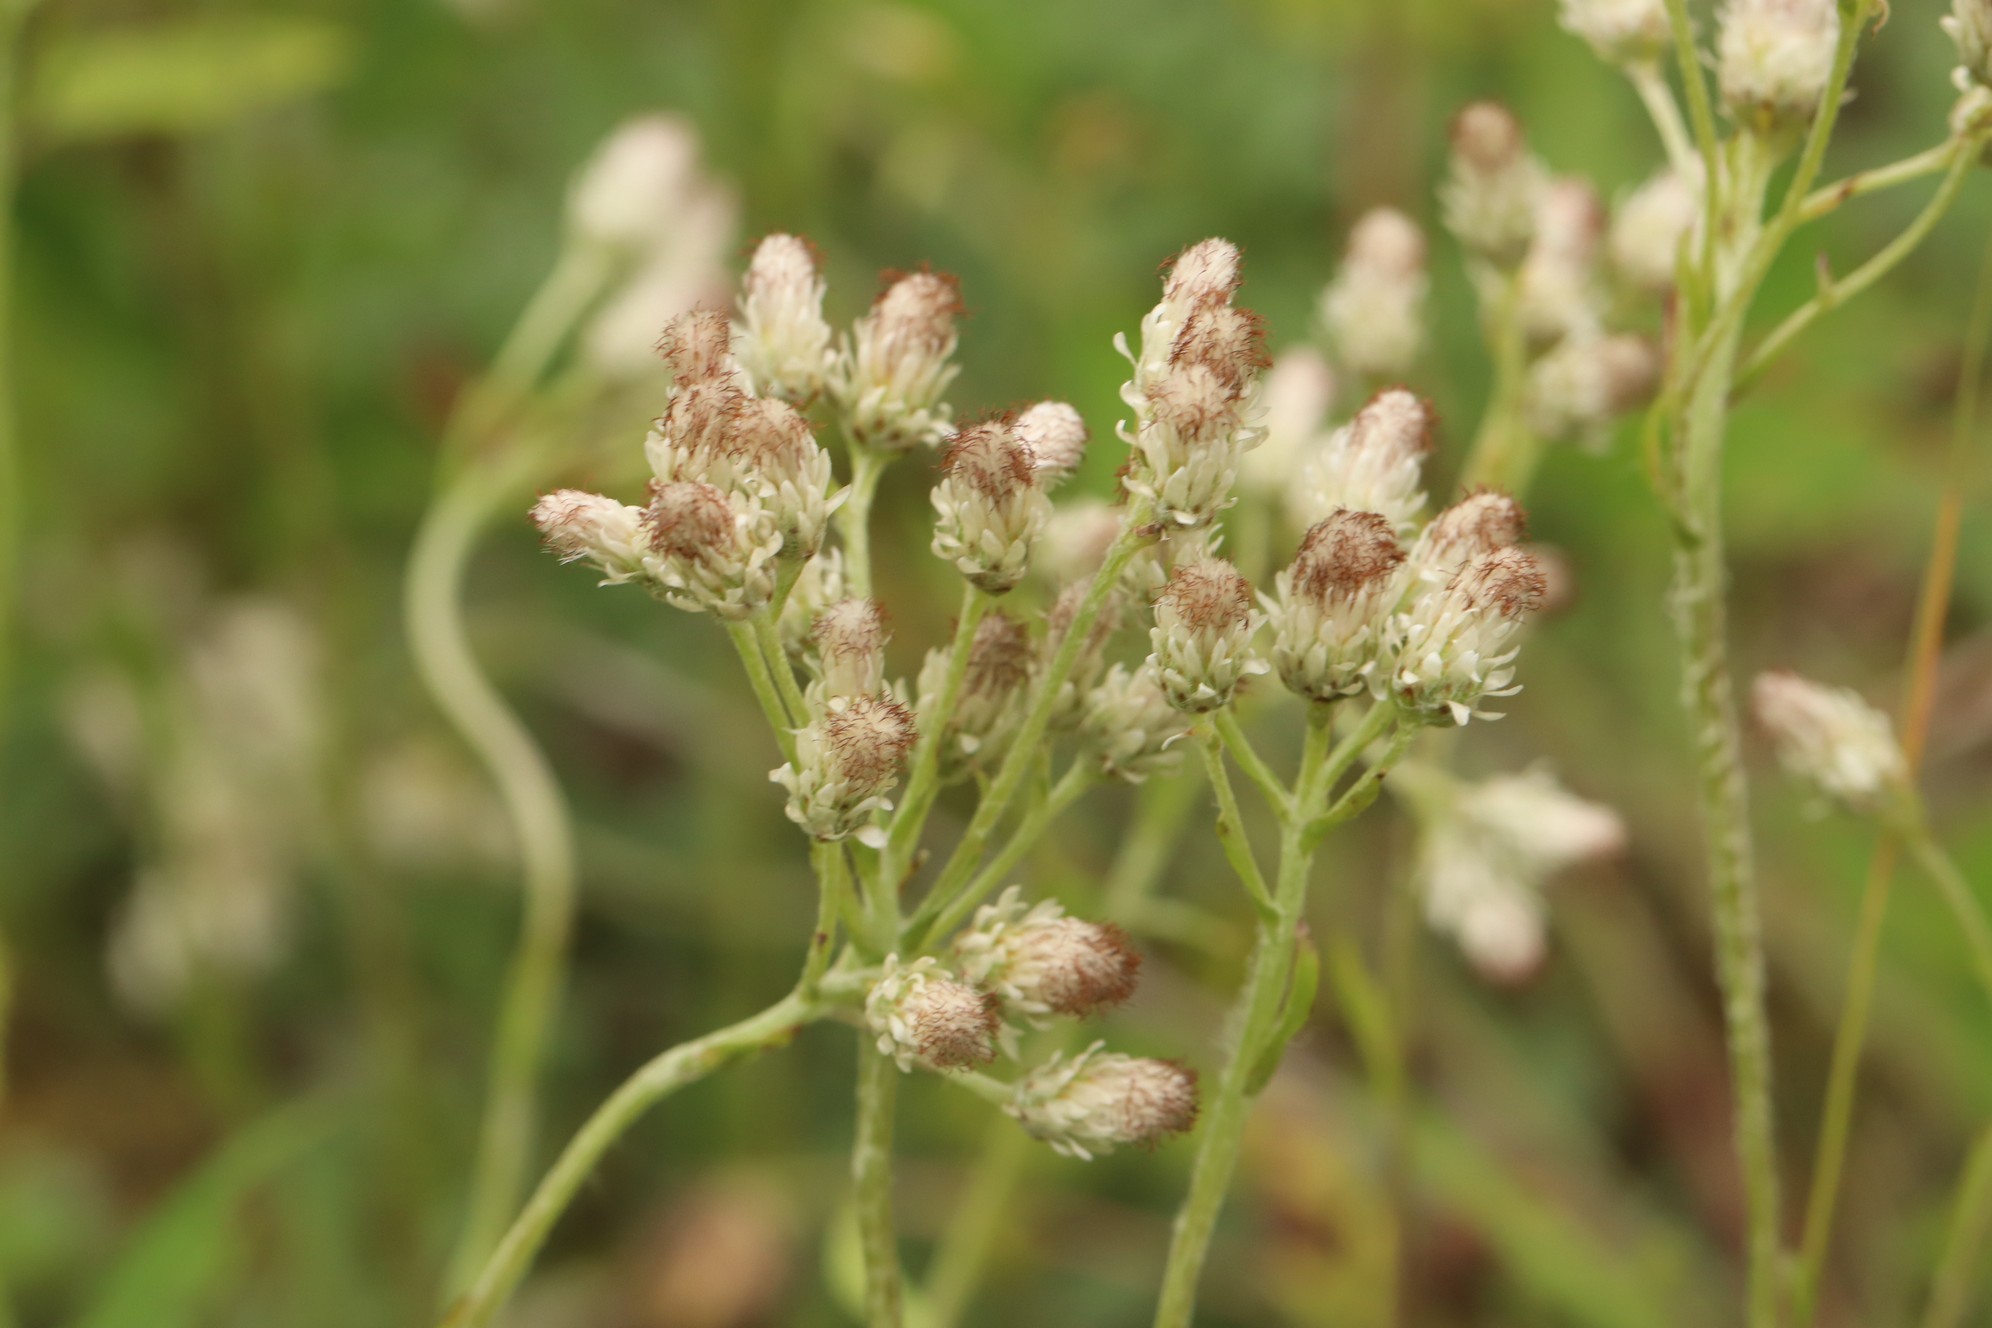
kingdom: Plantae
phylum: Tracheophyta
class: Magnoliopsida
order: Asterales
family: Asteraceae
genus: Antennaria
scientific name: Antennaria dioica
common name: Mountain everlasting
